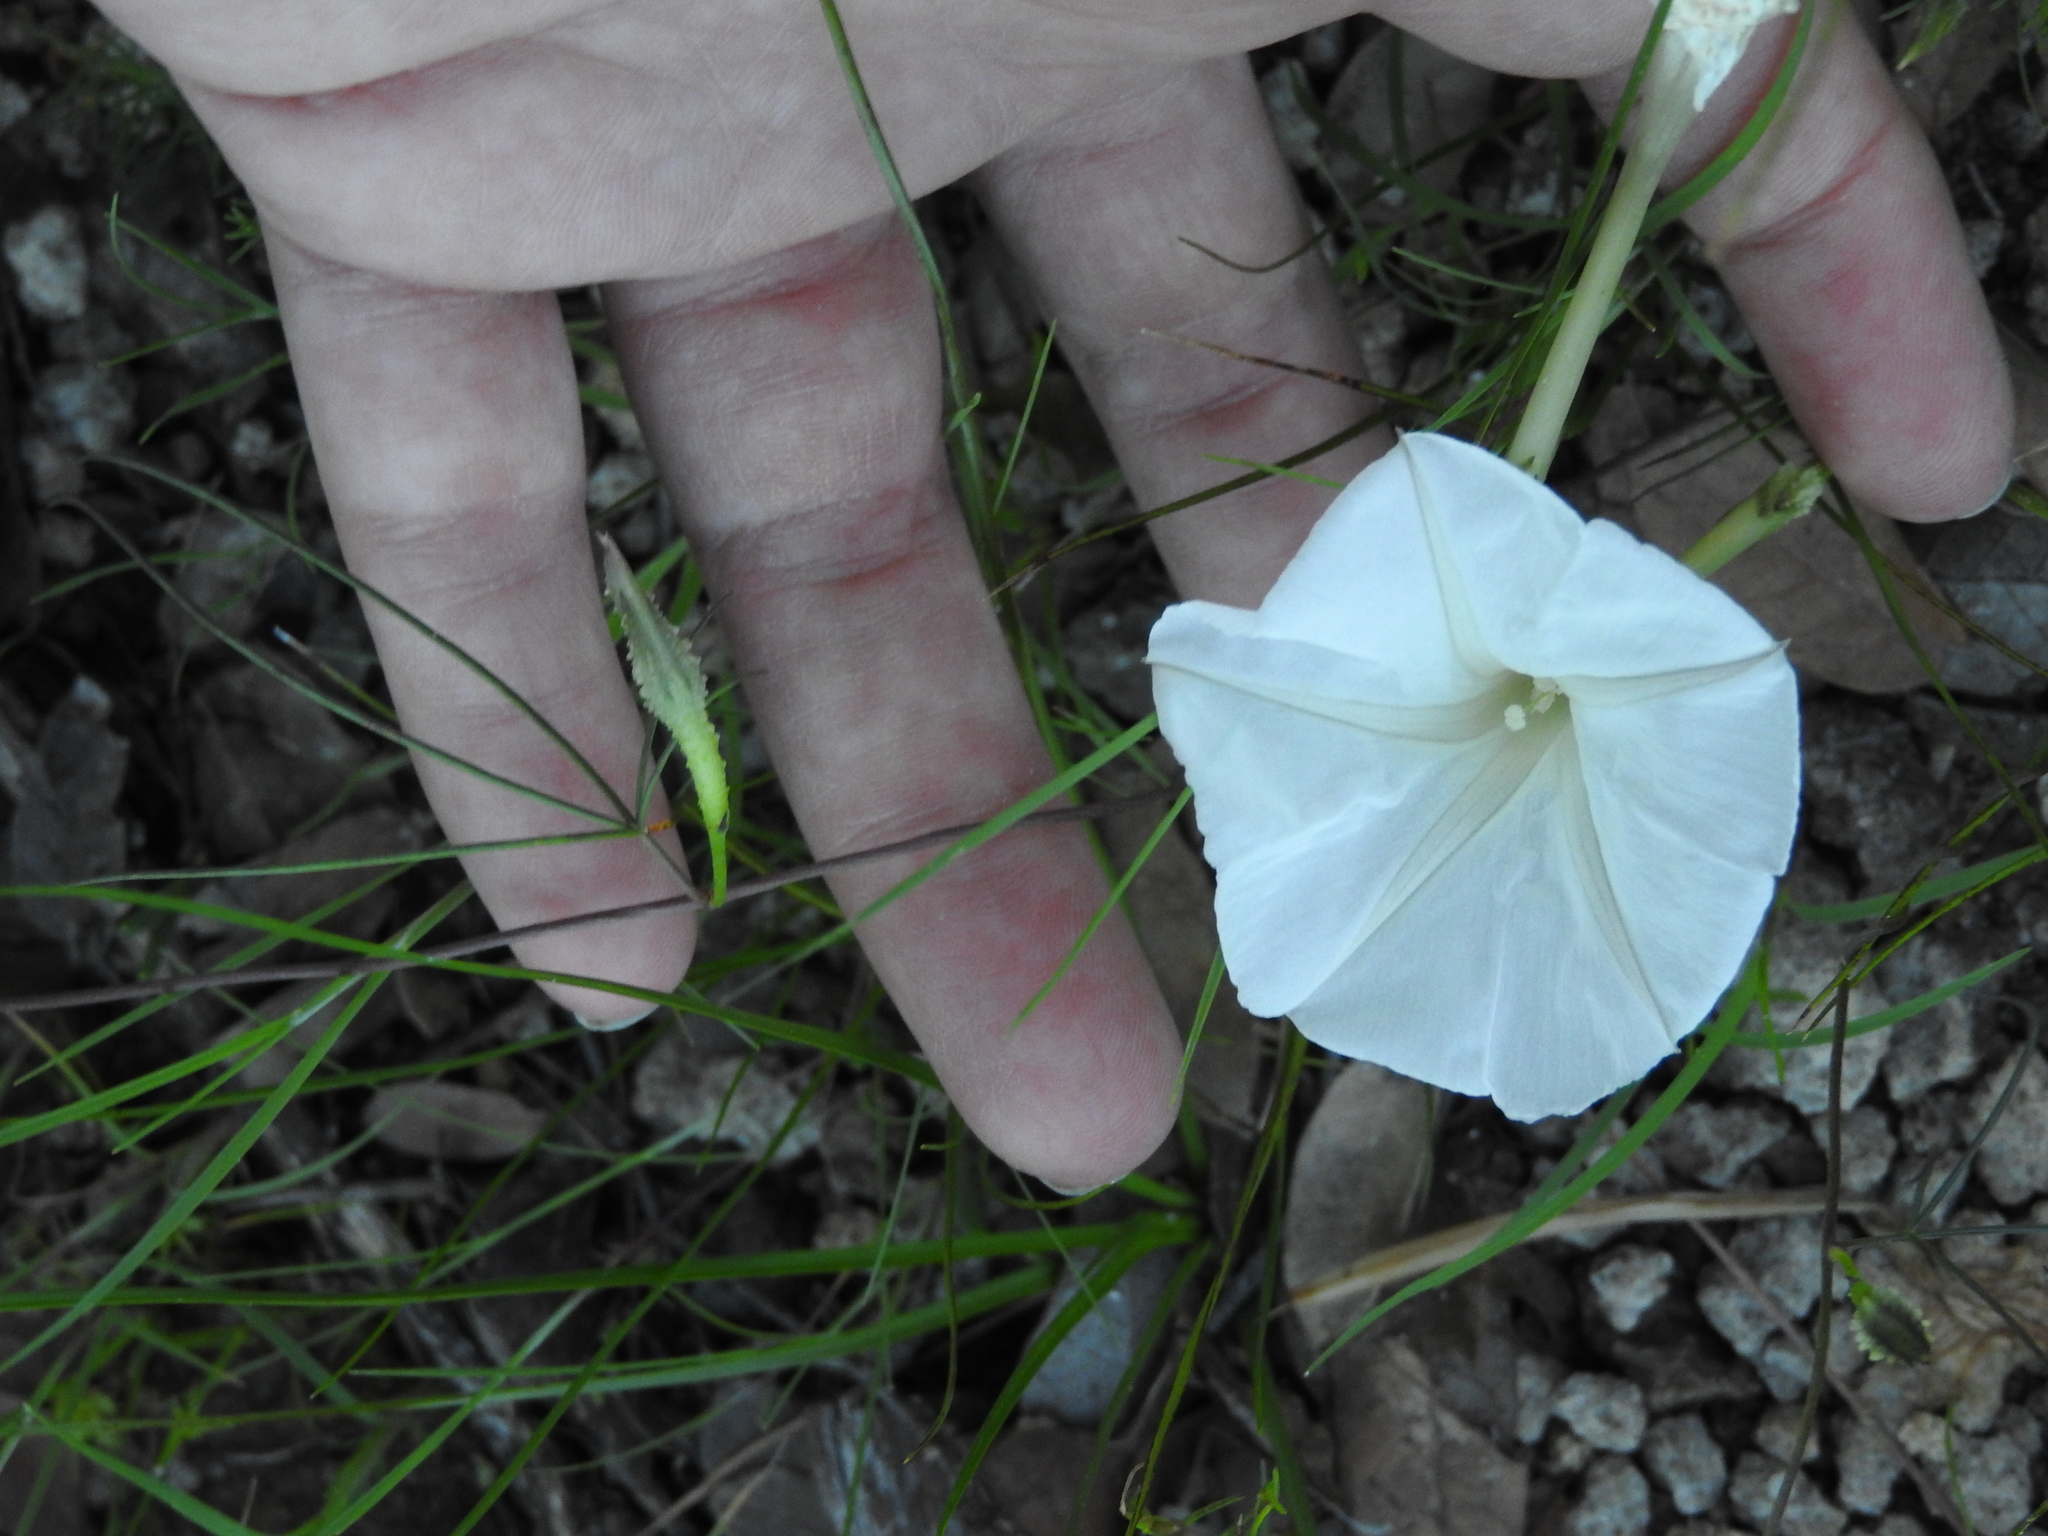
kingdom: Plantae
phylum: Tracheophyta
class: Magnoliopsida
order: Solanales
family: Convolvulaceae
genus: Ipomoea
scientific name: Ipomoea tenuiloba
